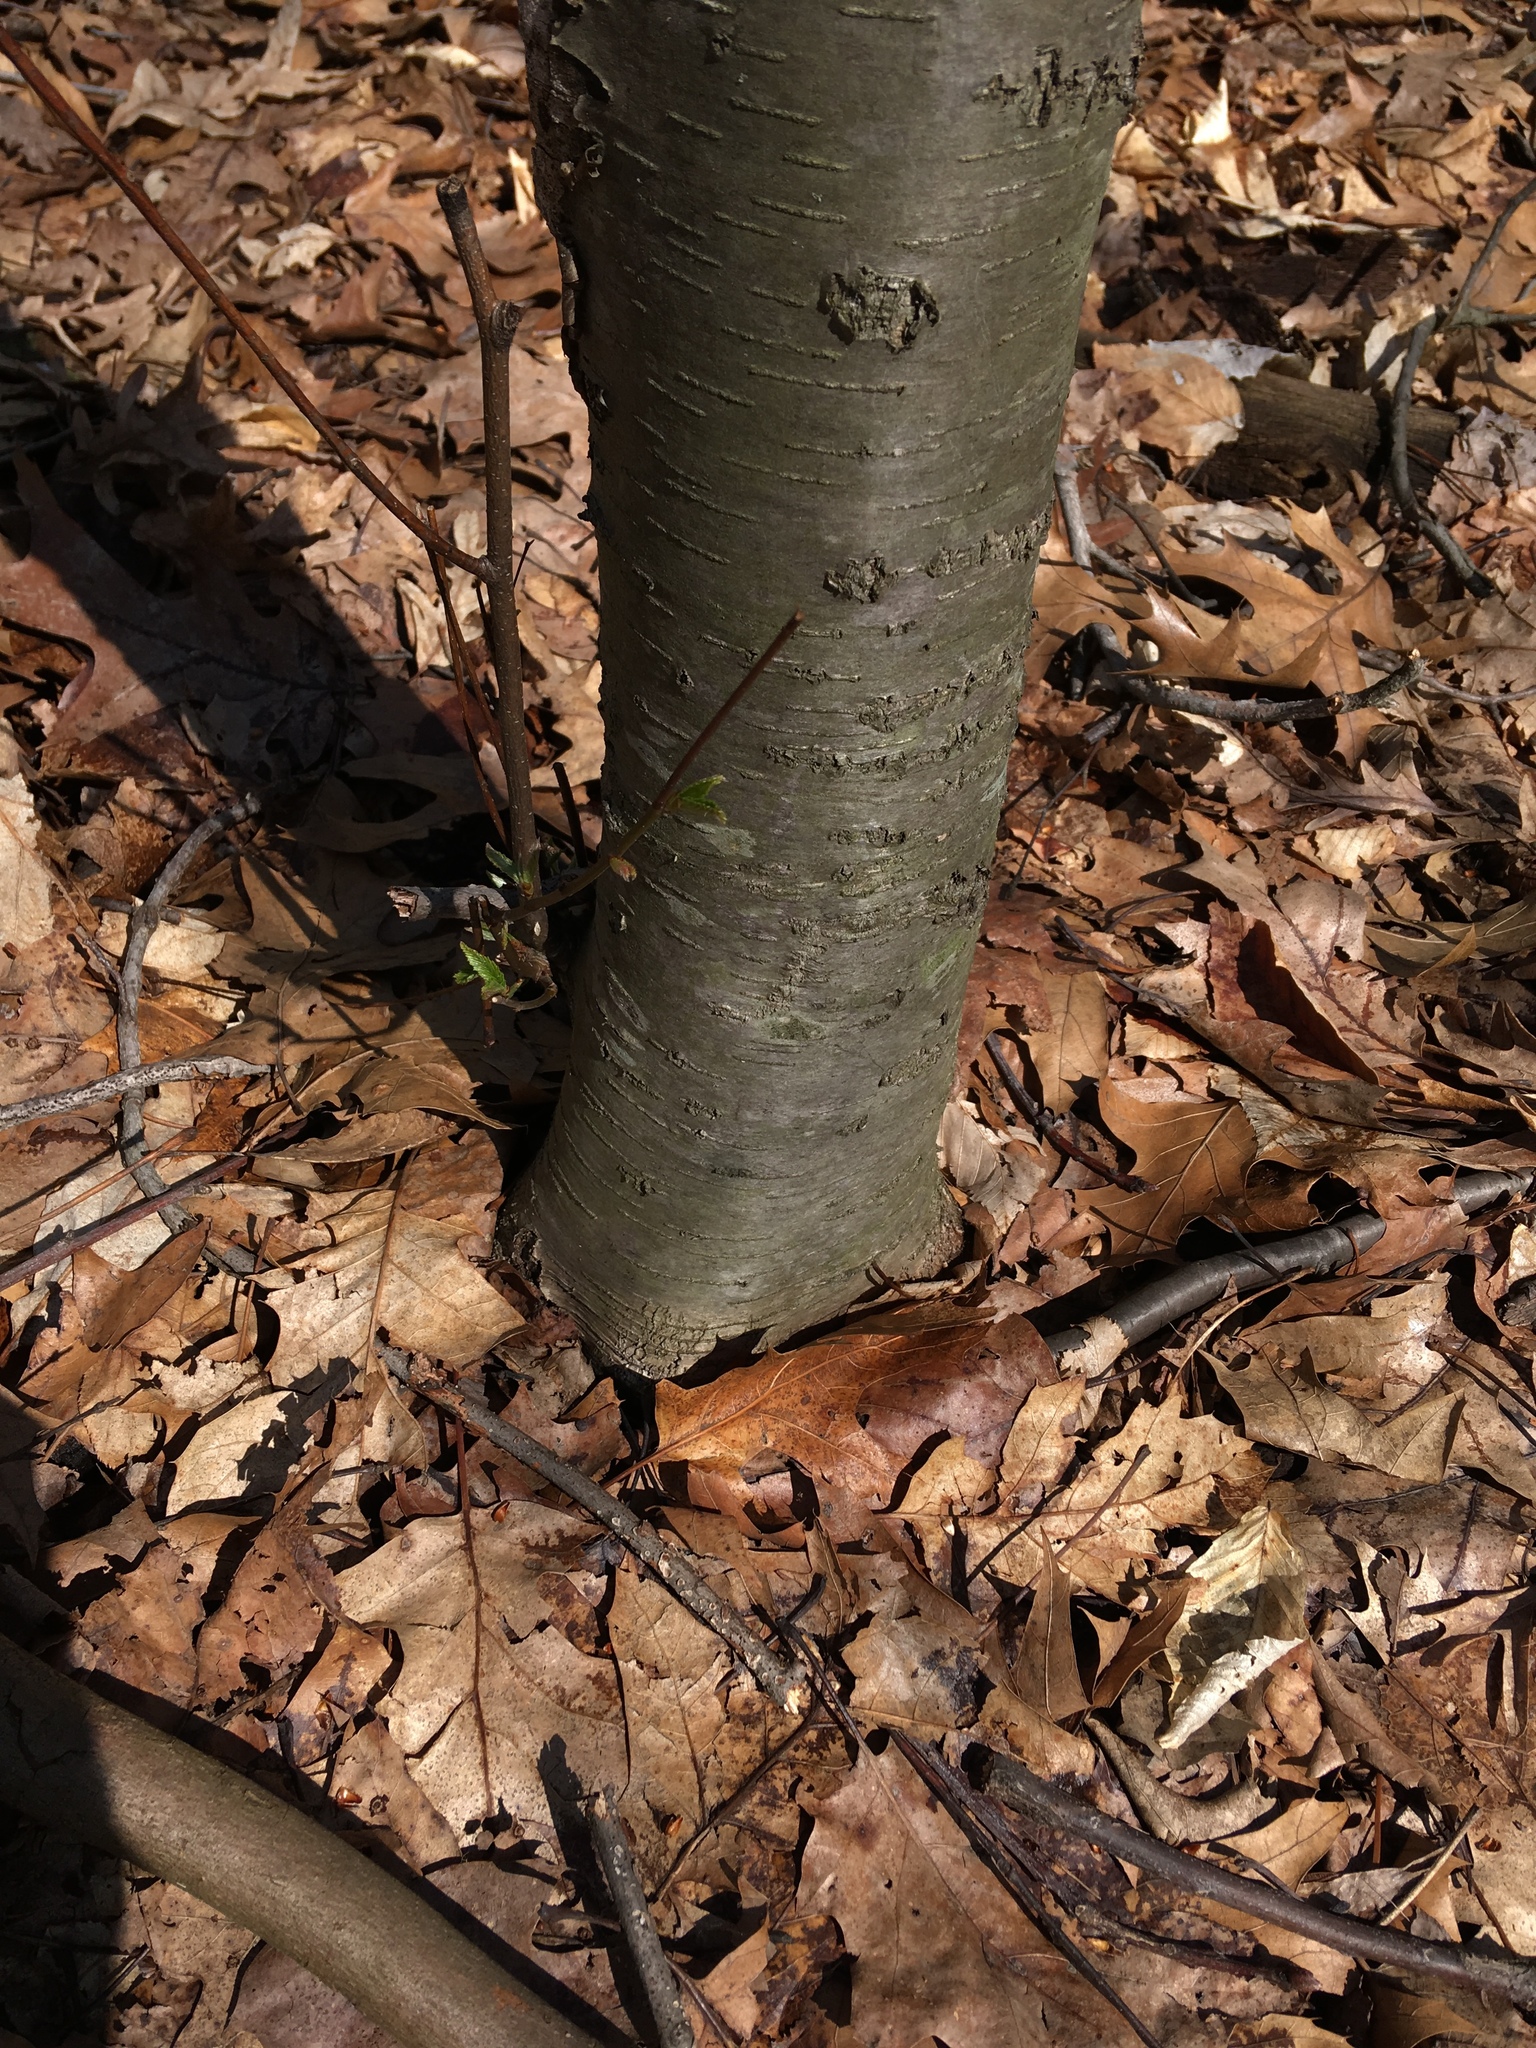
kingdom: Plantae
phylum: Tracheophyta
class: Magnoliopsida
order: Fagales
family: Betulaceae
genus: Betula
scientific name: Betula lenta
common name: Black birch
